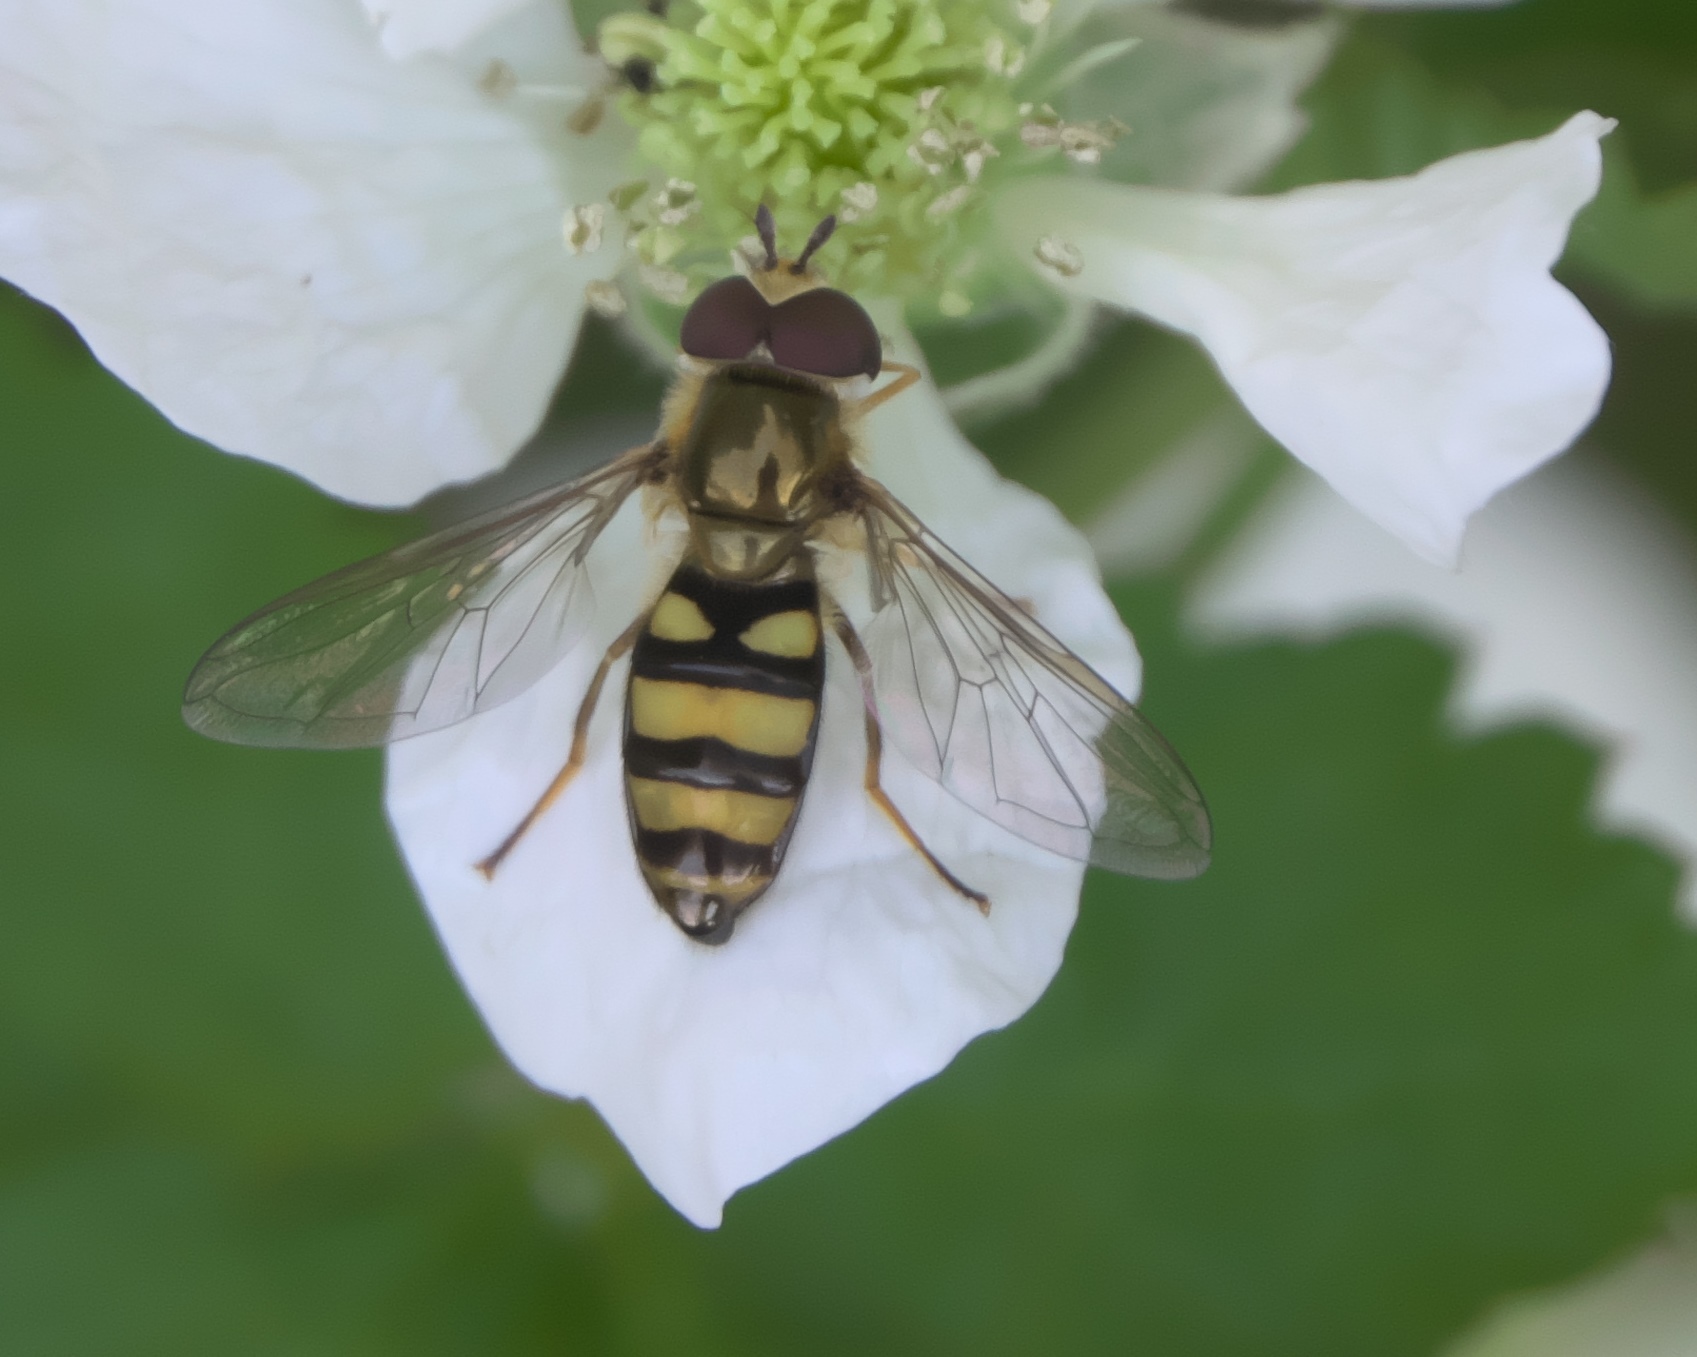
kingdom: Animalia
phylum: Arthropoda
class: Insecta
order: Diptera
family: Syrphidae
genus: Eupeodes
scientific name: Eupeodes
